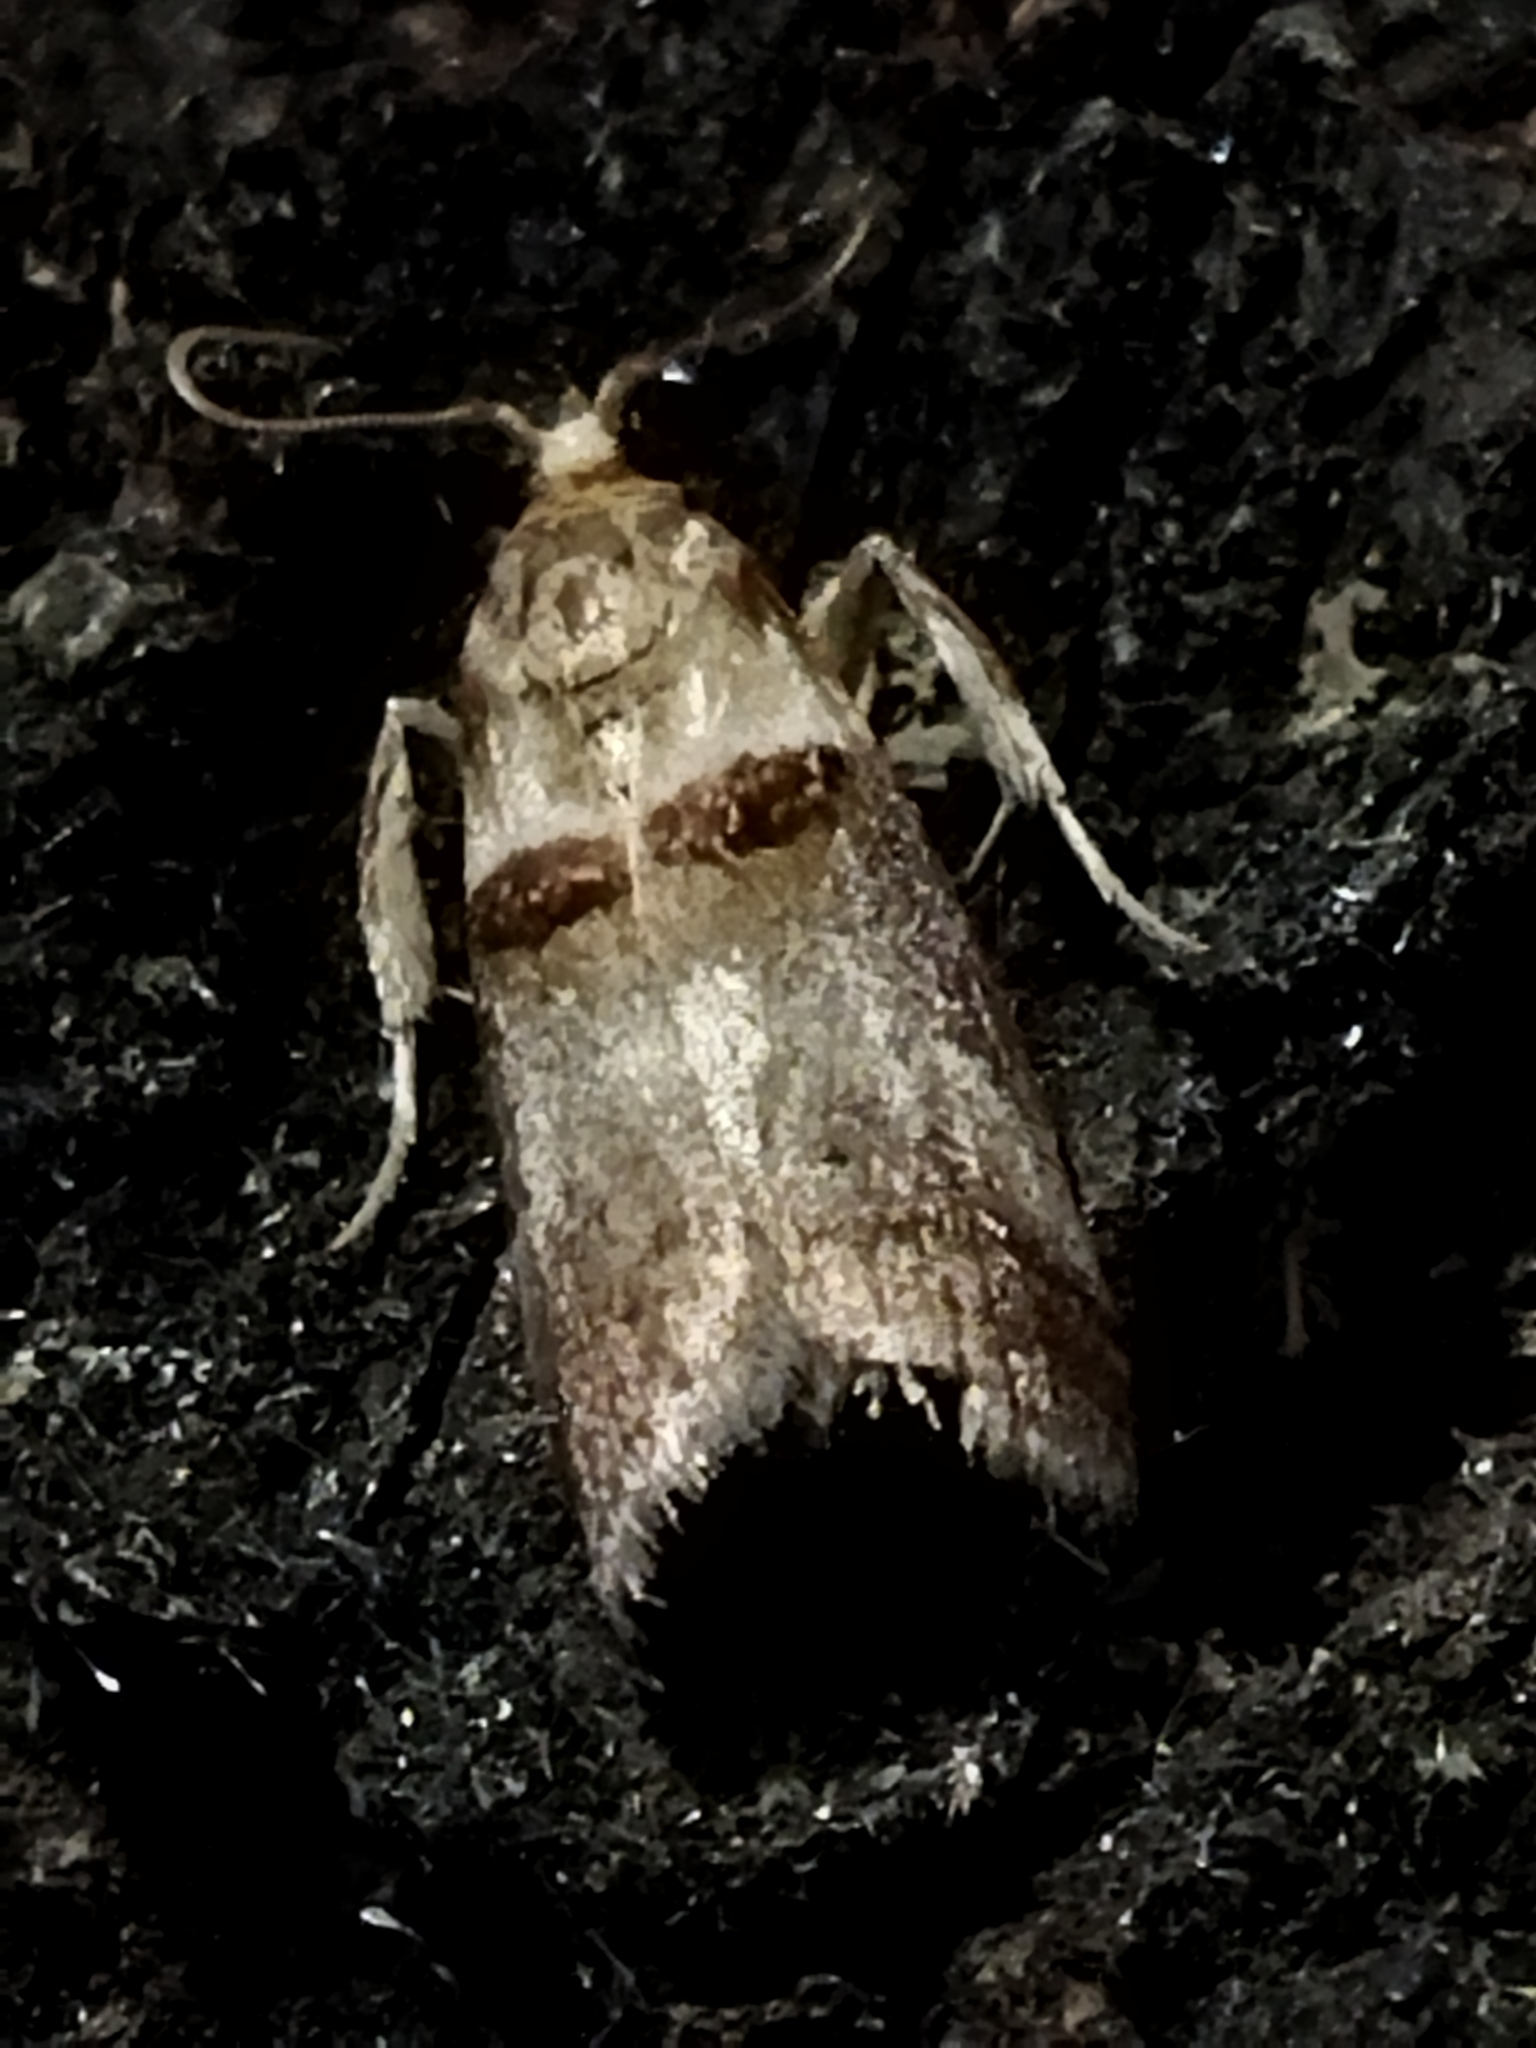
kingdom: Animalia
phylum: Arthropoda
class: Insecta
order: Lepidoptera
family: Pyralidae
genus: Acrobasis
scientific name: Acrobasis tumidana
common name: Scarce oak knot-horn
